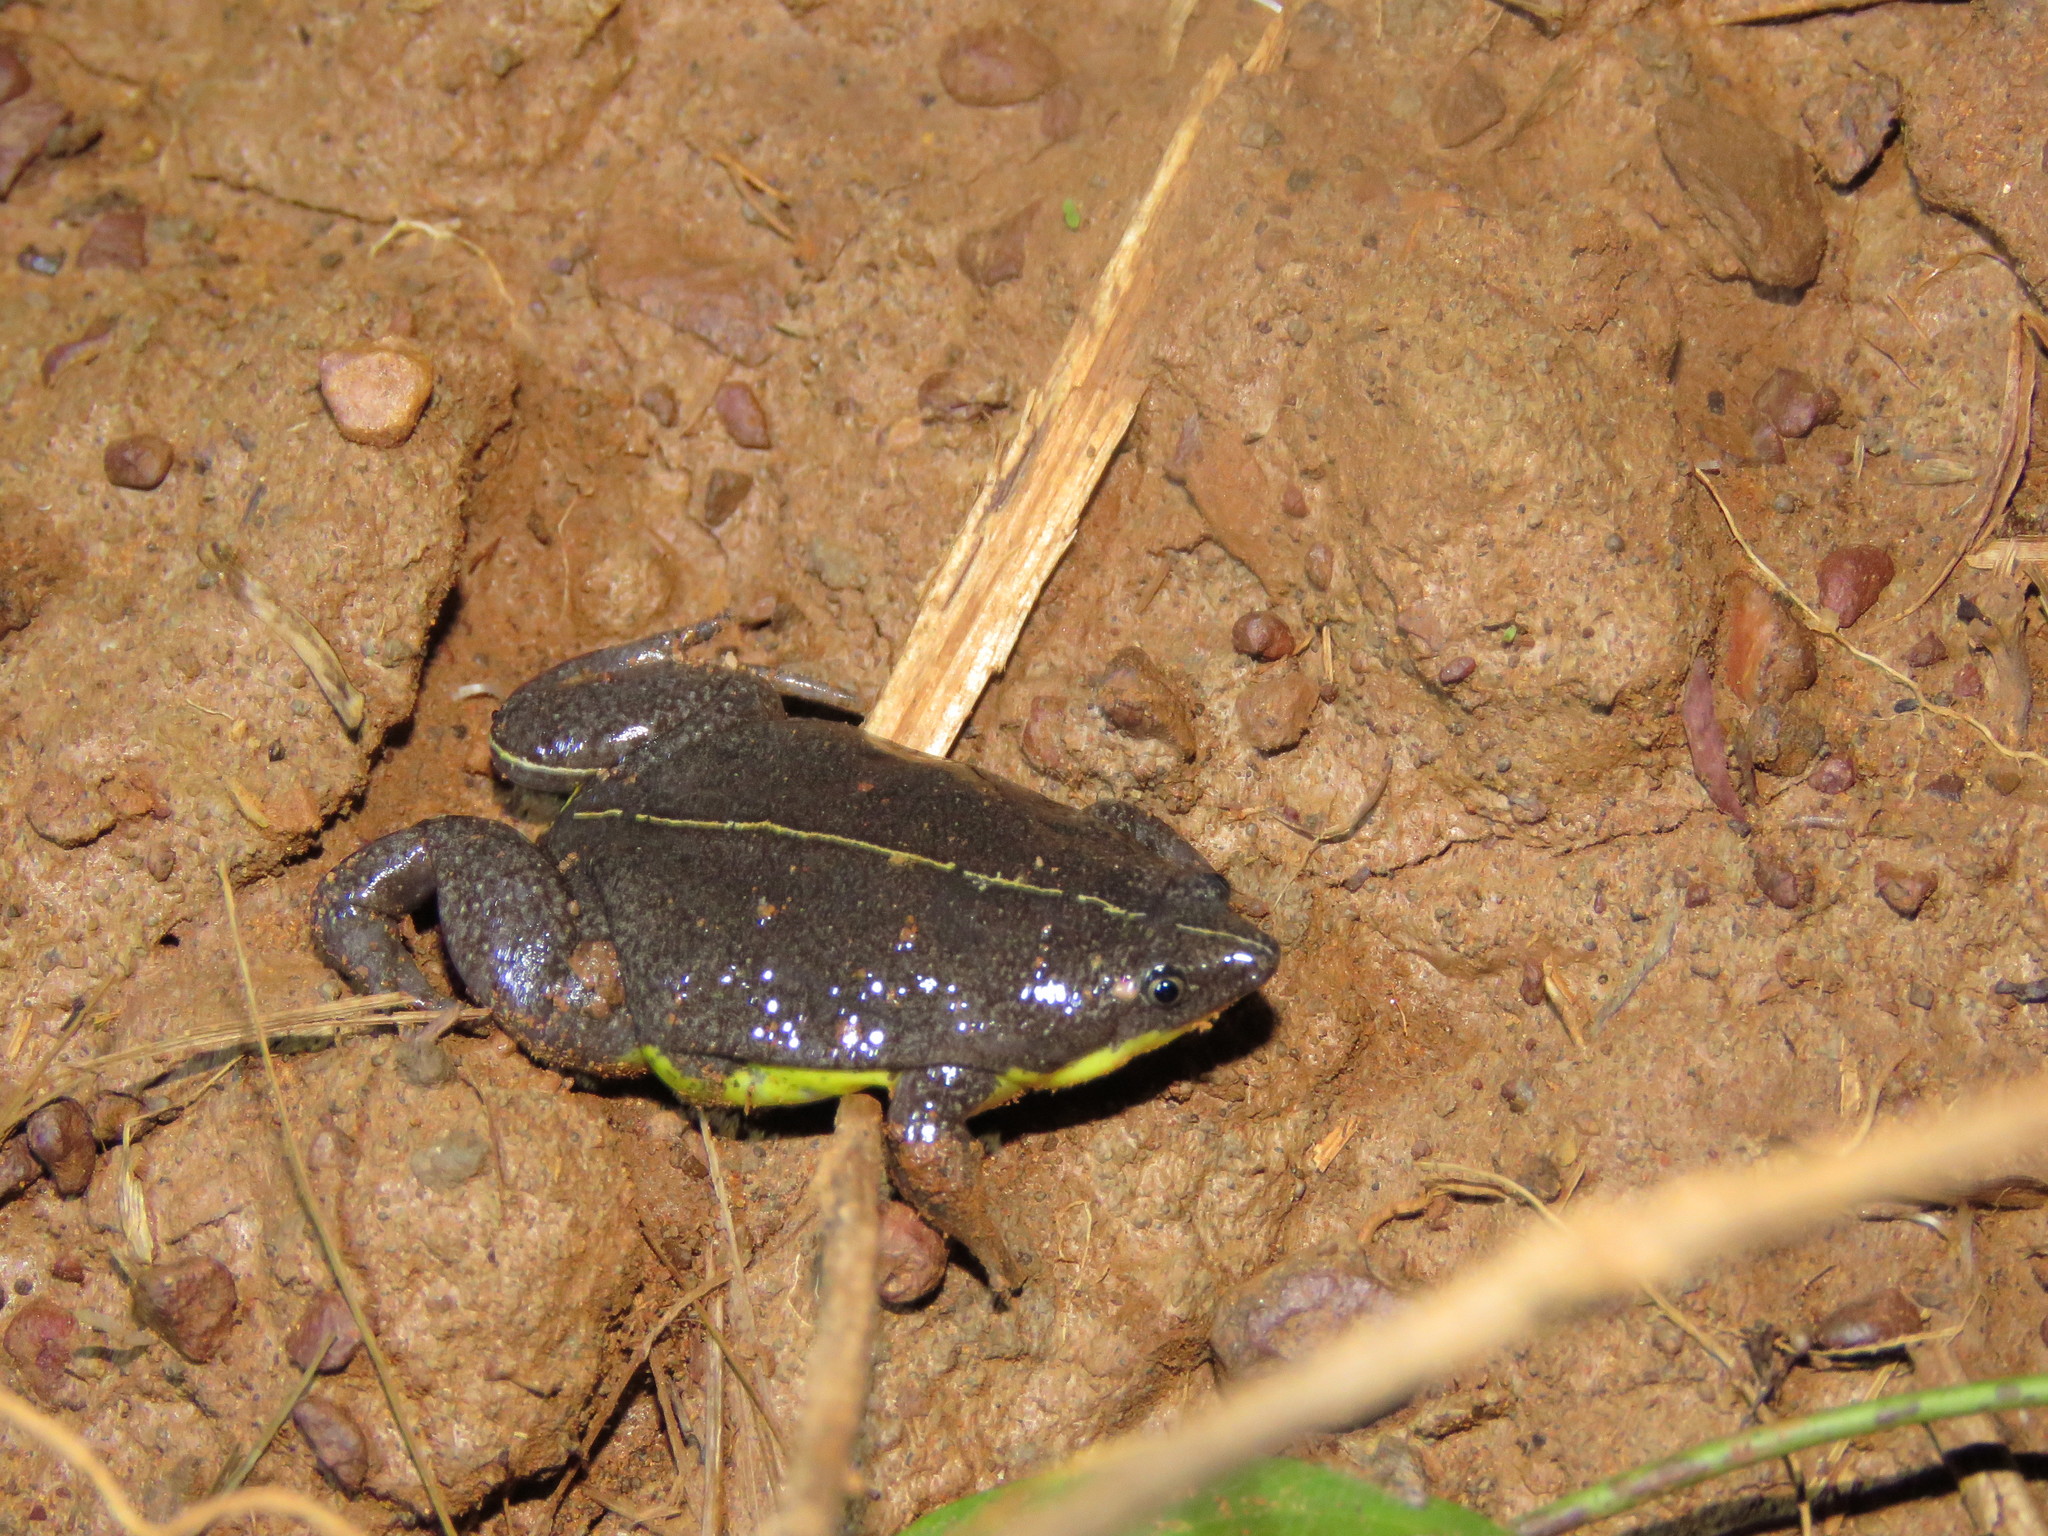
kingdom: Animalia
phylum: Chordata
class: Amphibia
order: Anura
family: Microhylidae
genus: Elachistocleis
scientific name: Elachistocleis helianneae
